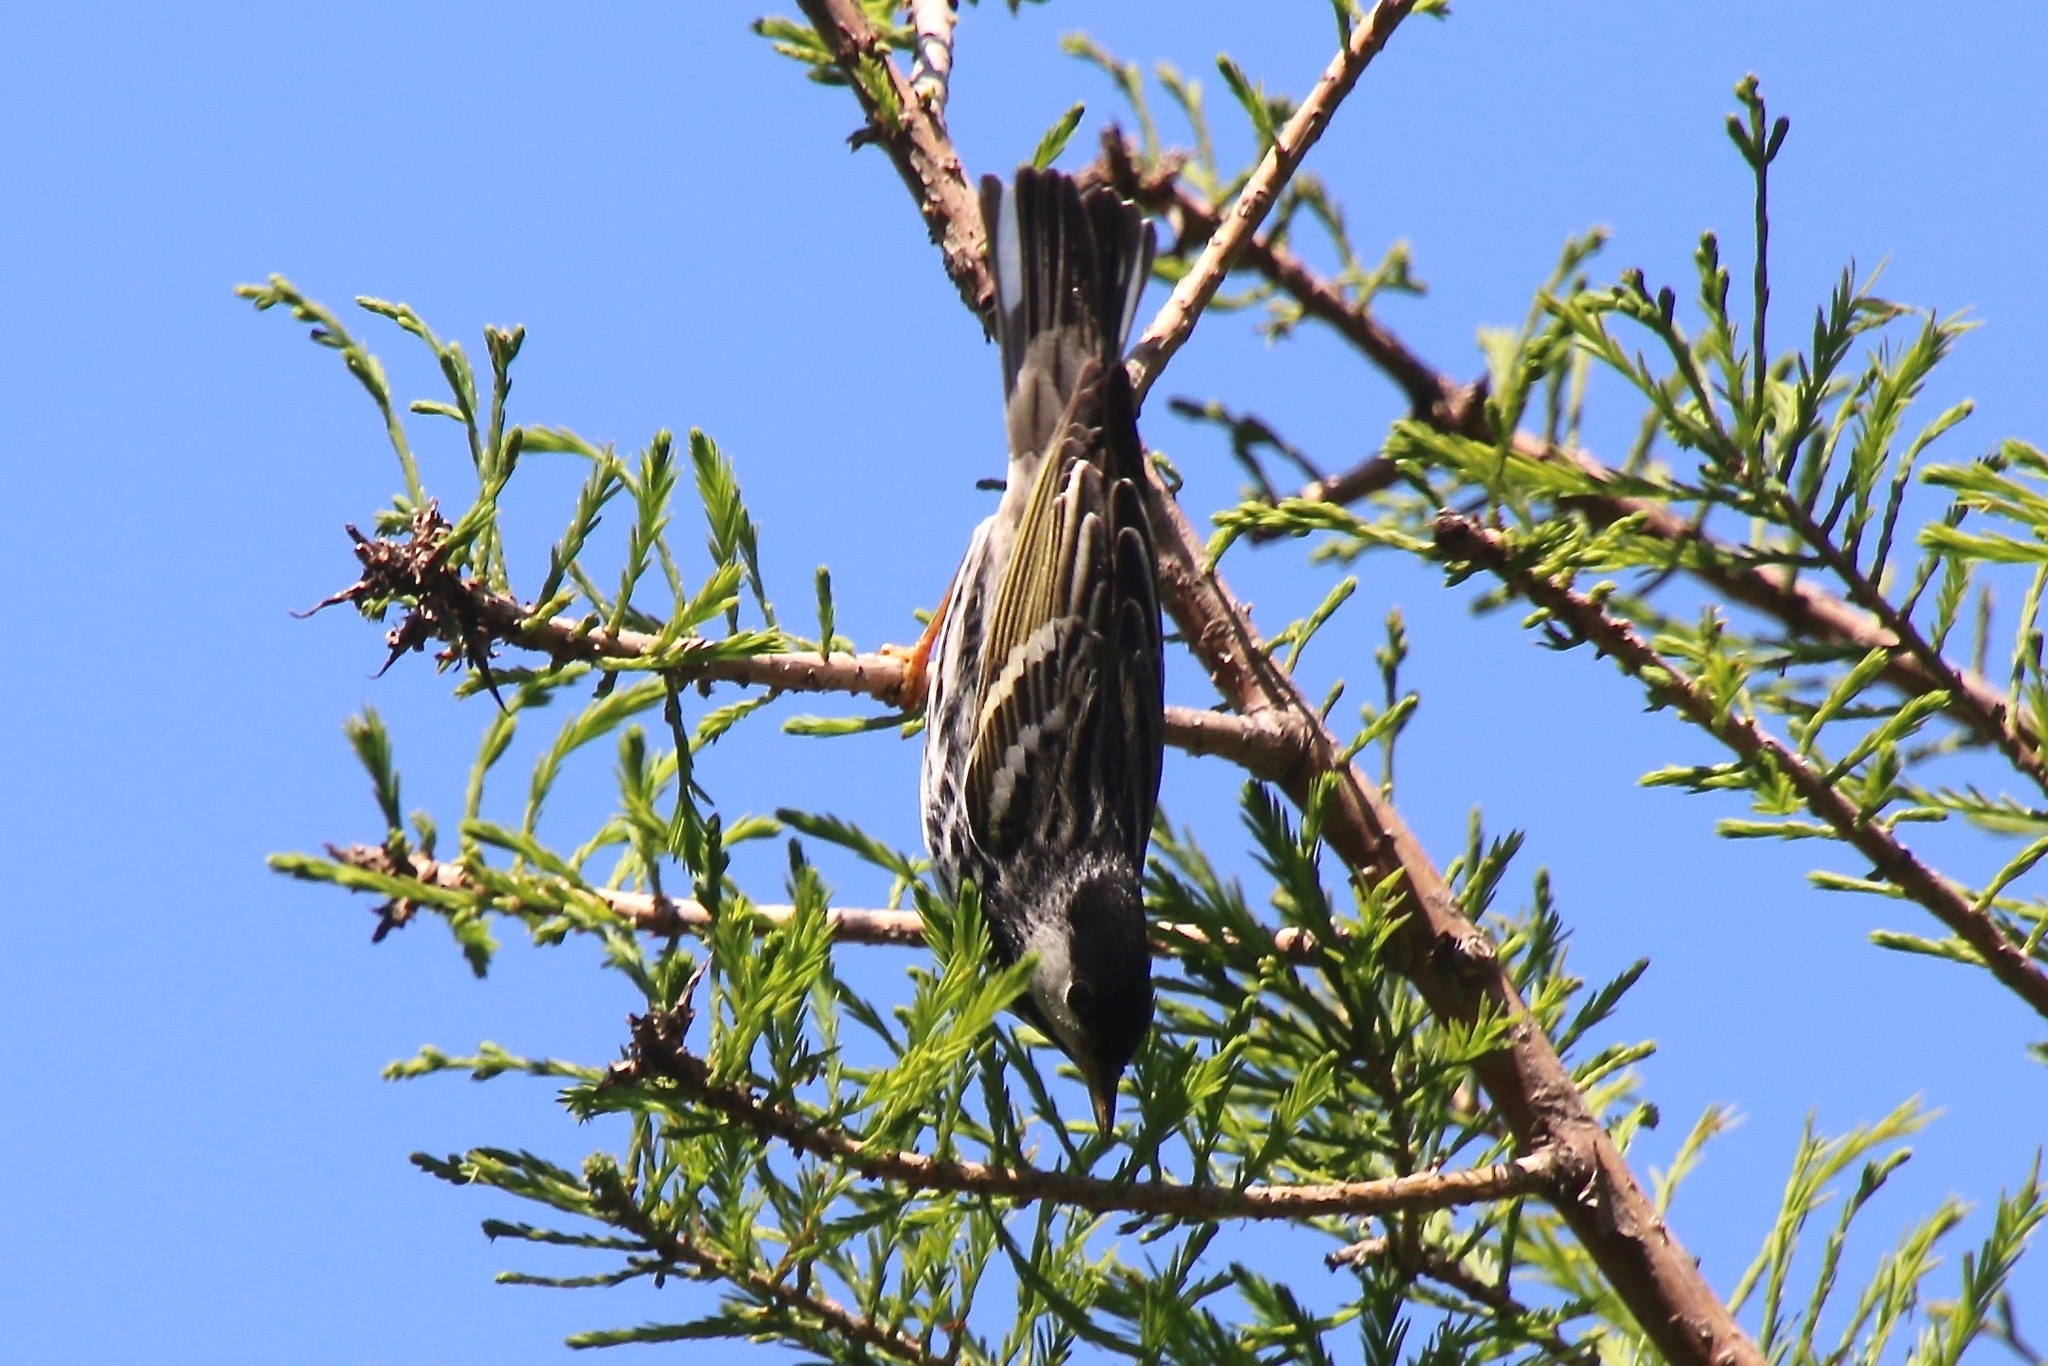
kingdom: Animalia
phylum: Chordata
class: Aves
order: Passeriformes
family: Parulidae
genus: Setophaga
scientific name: Setophaga striata
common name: Blackpoll warbler
